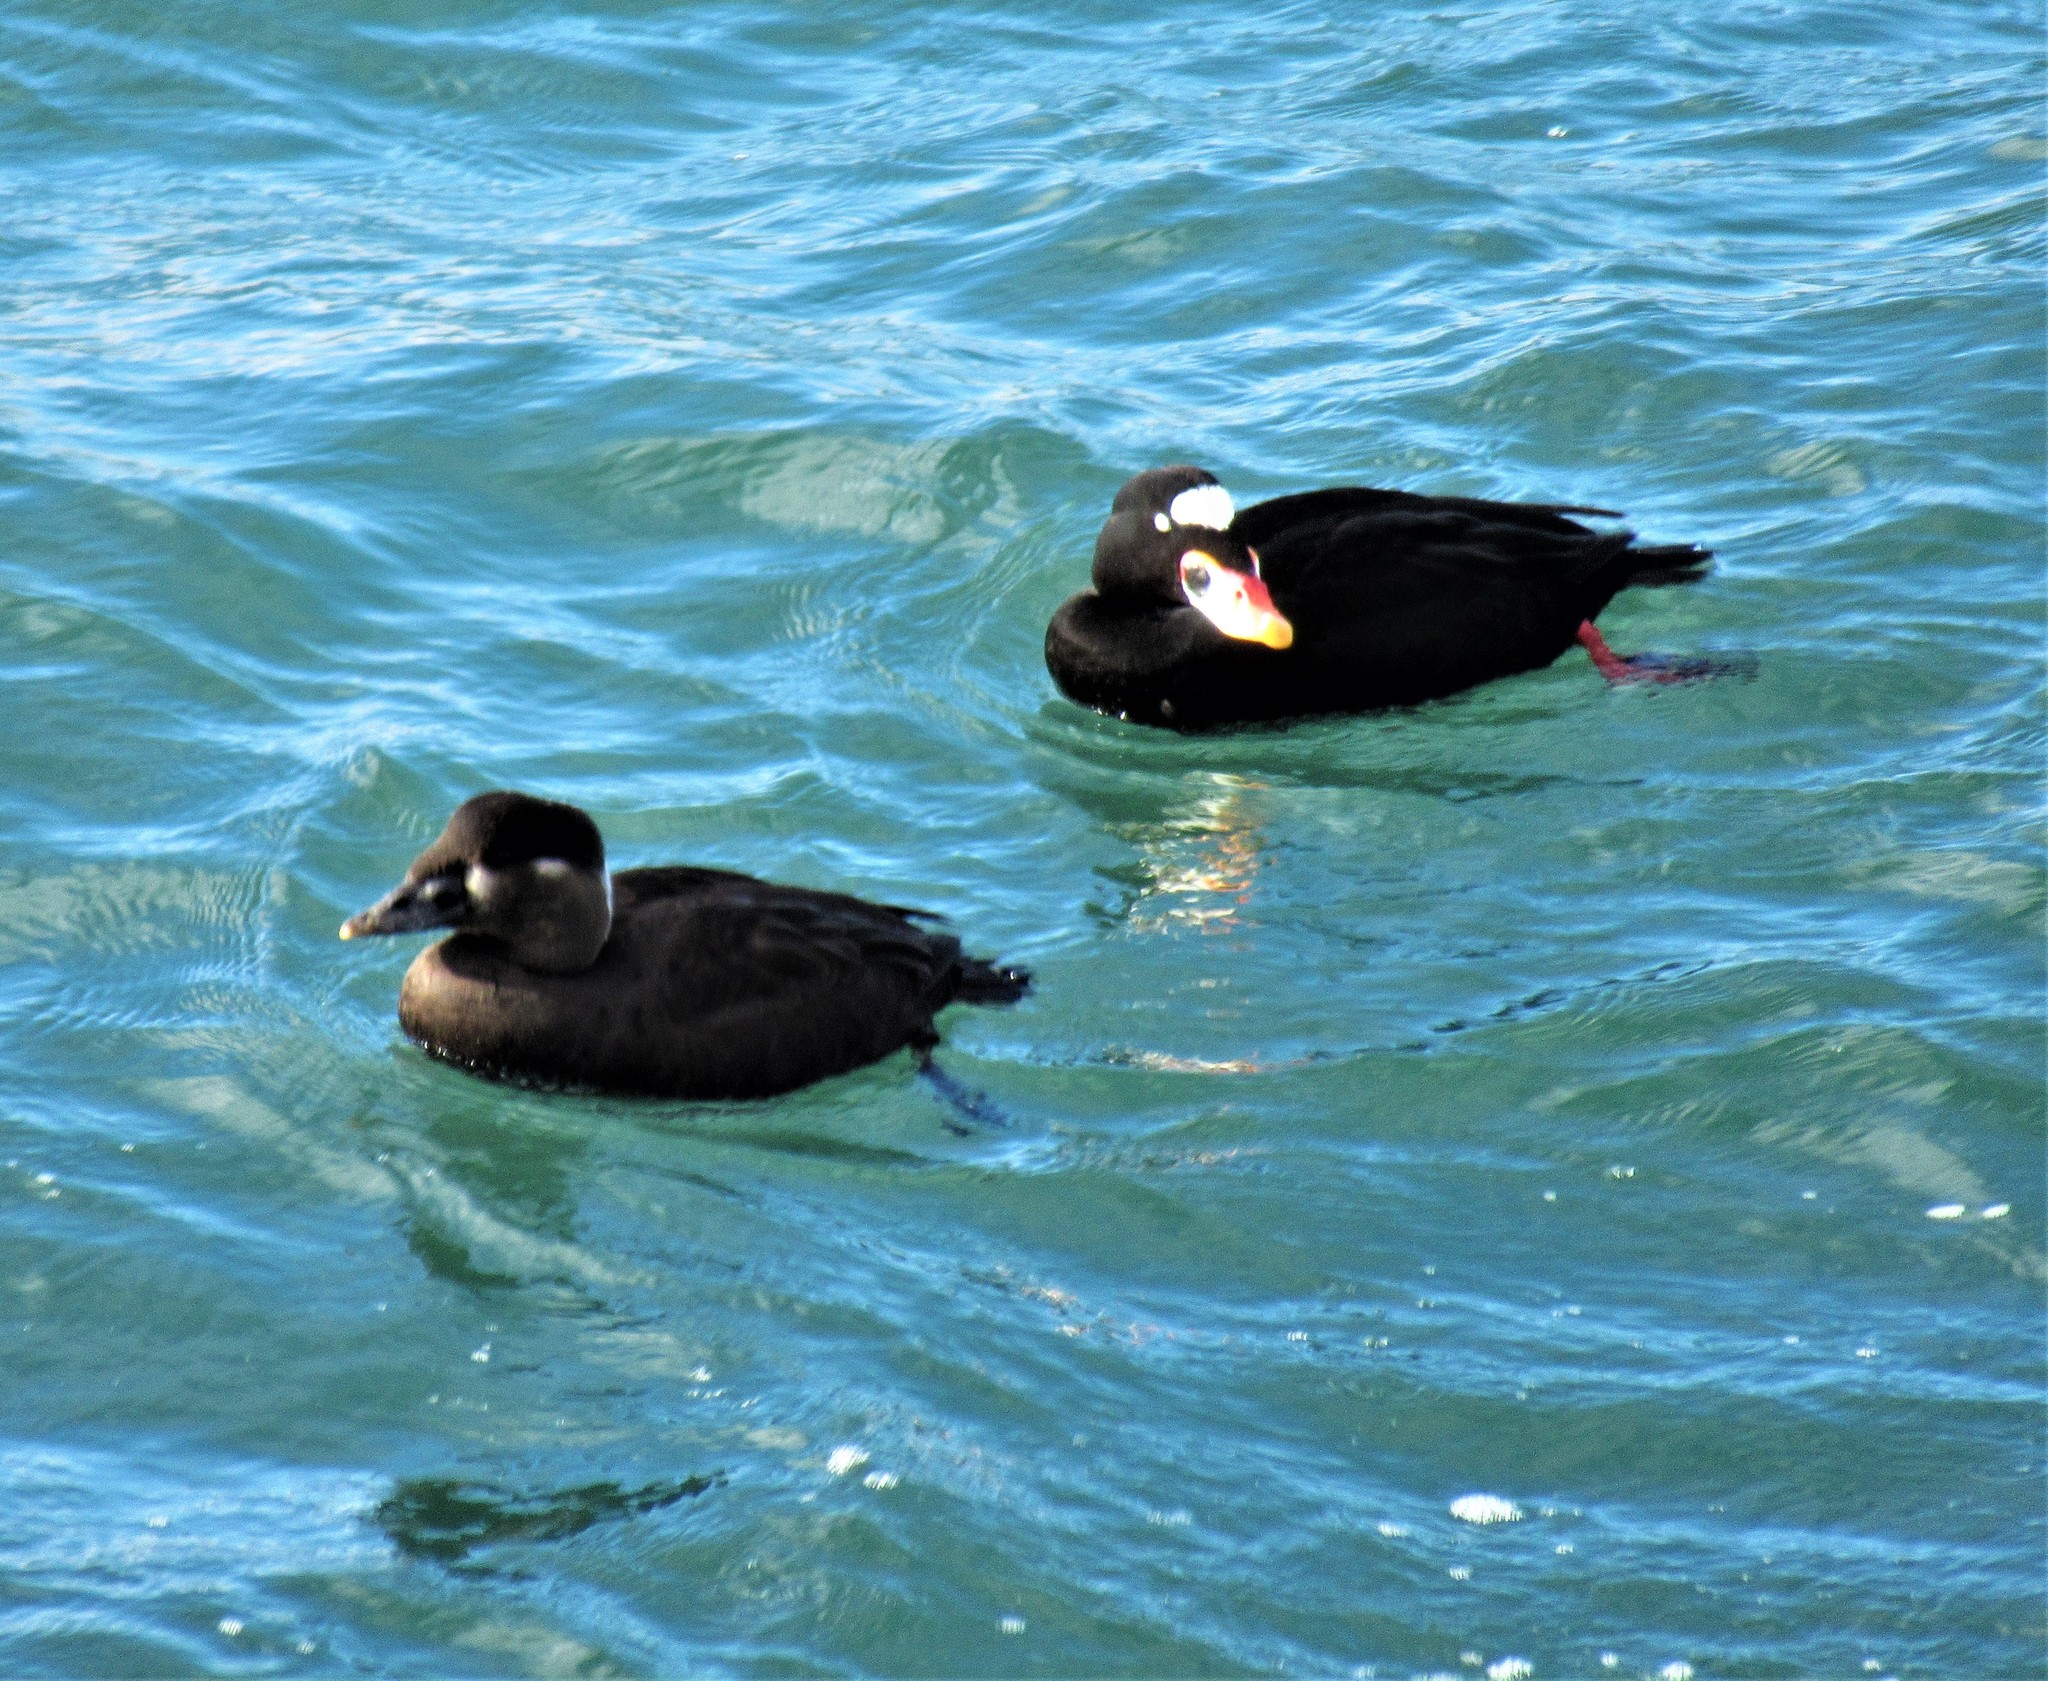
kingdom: Animalia
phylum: Chordata
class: Aves
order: Anseriformes
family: Anatidae
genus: Melanitta
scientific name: Melanitta perspicillata
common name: Surf scoter
